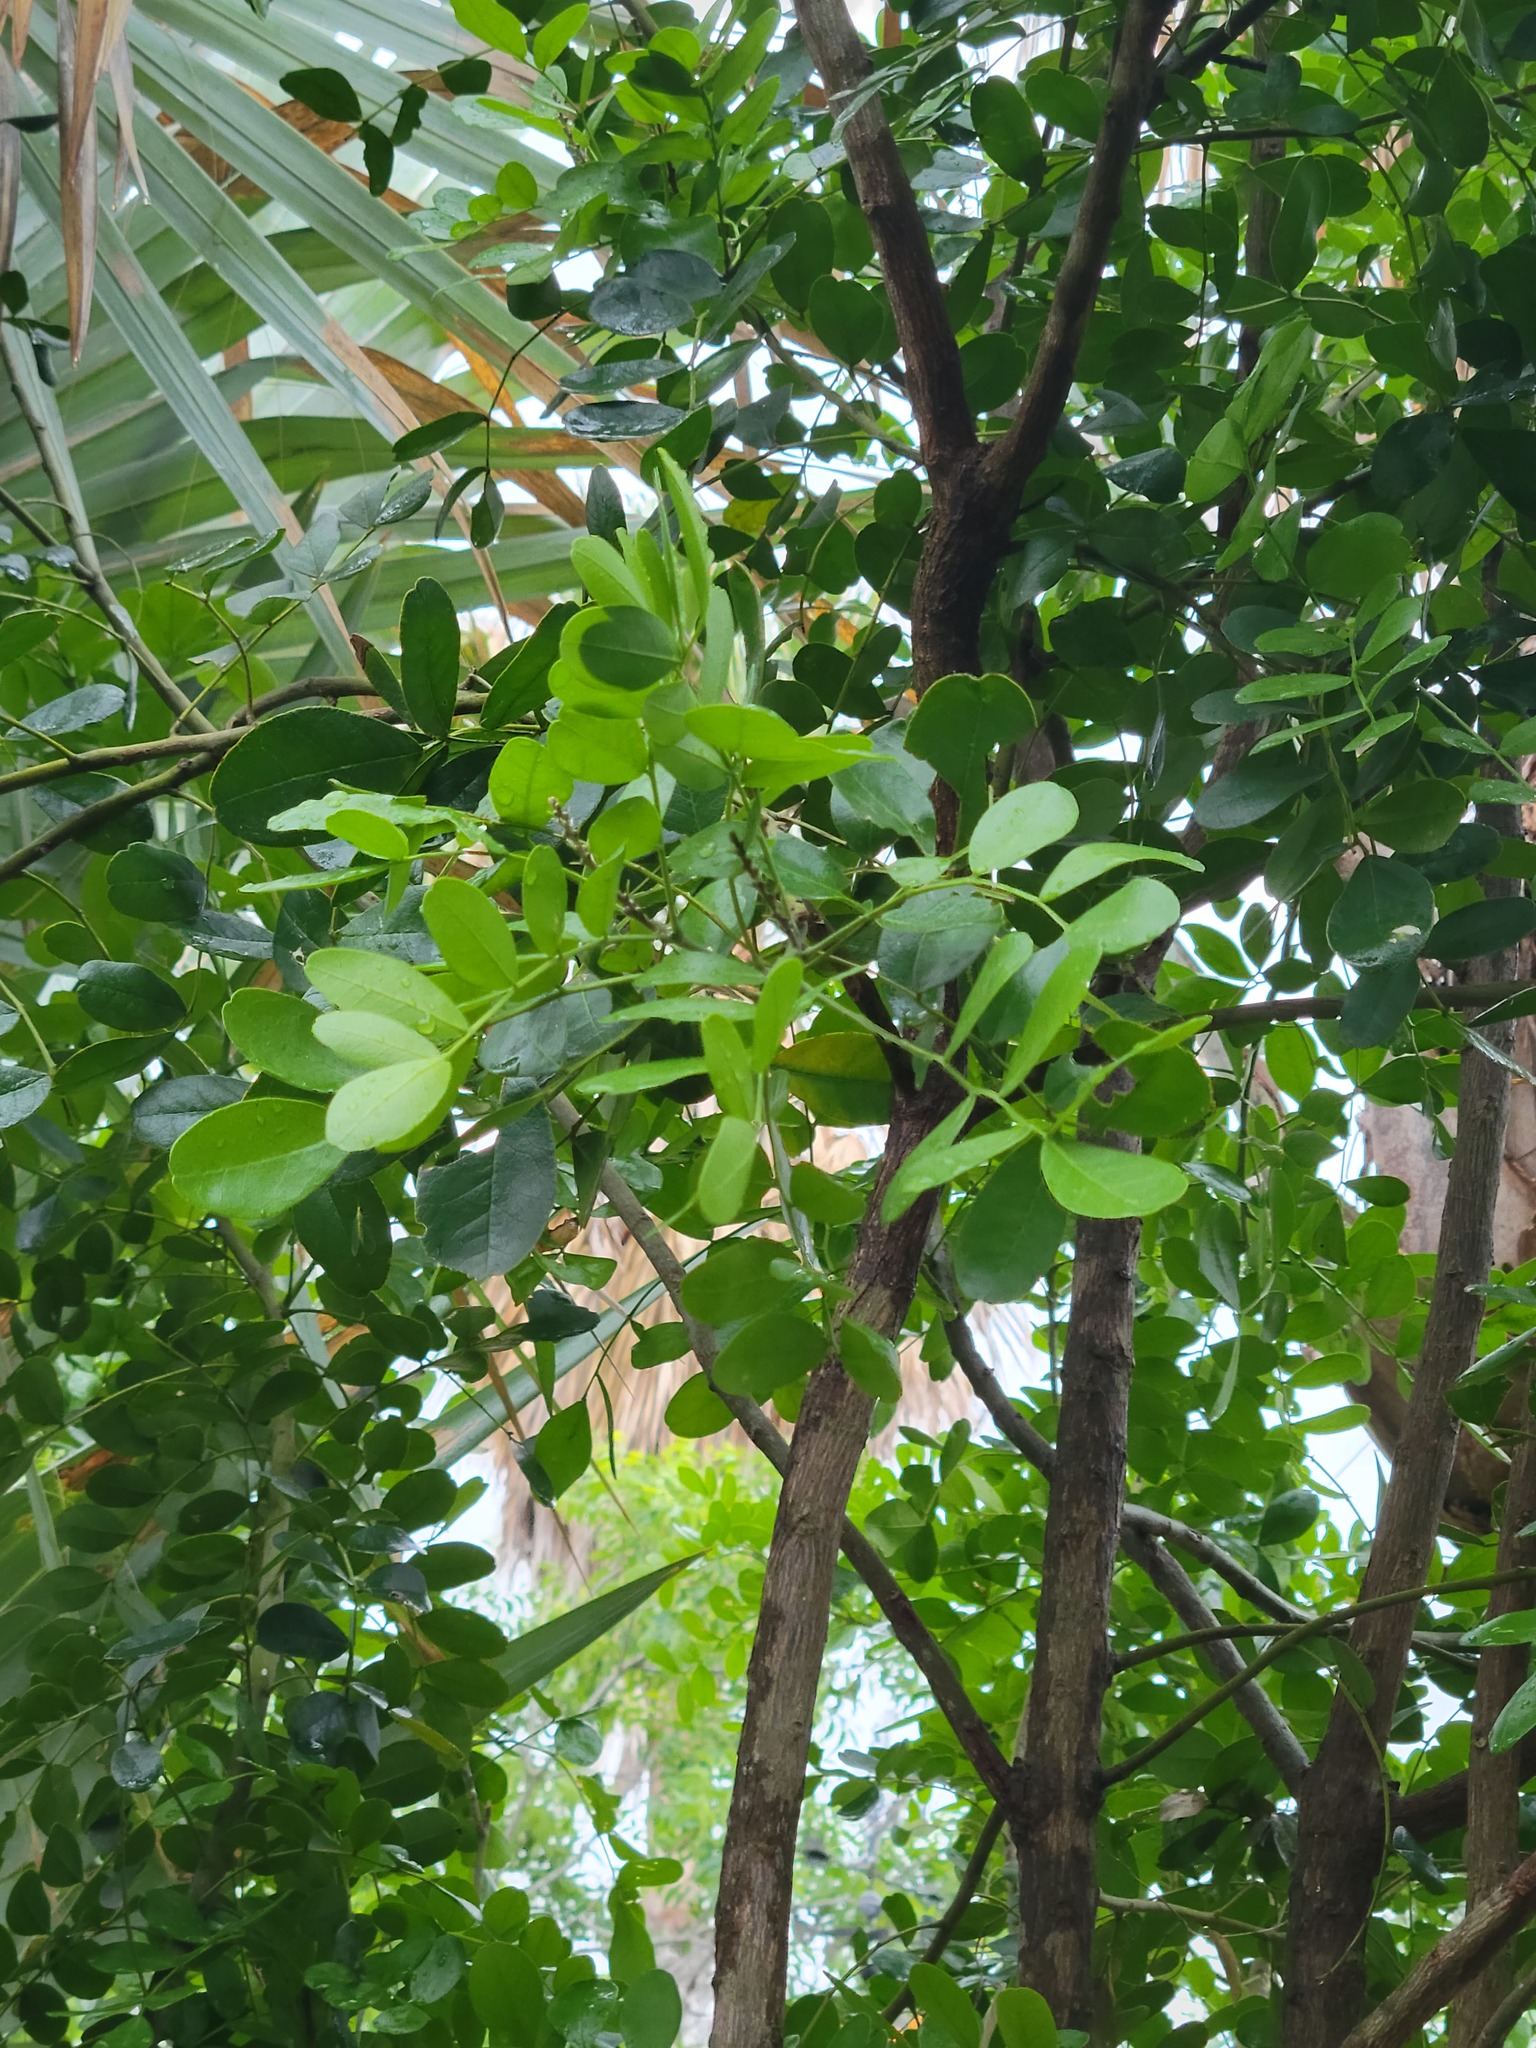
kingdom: Plantae
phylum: Tracheophyta
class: Magnoliopsida
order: Fabales
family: Fabaceae
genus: Dermatophyllum
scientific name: Dermatophyllum secundiflorum
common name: Texas-mountain-laurel
